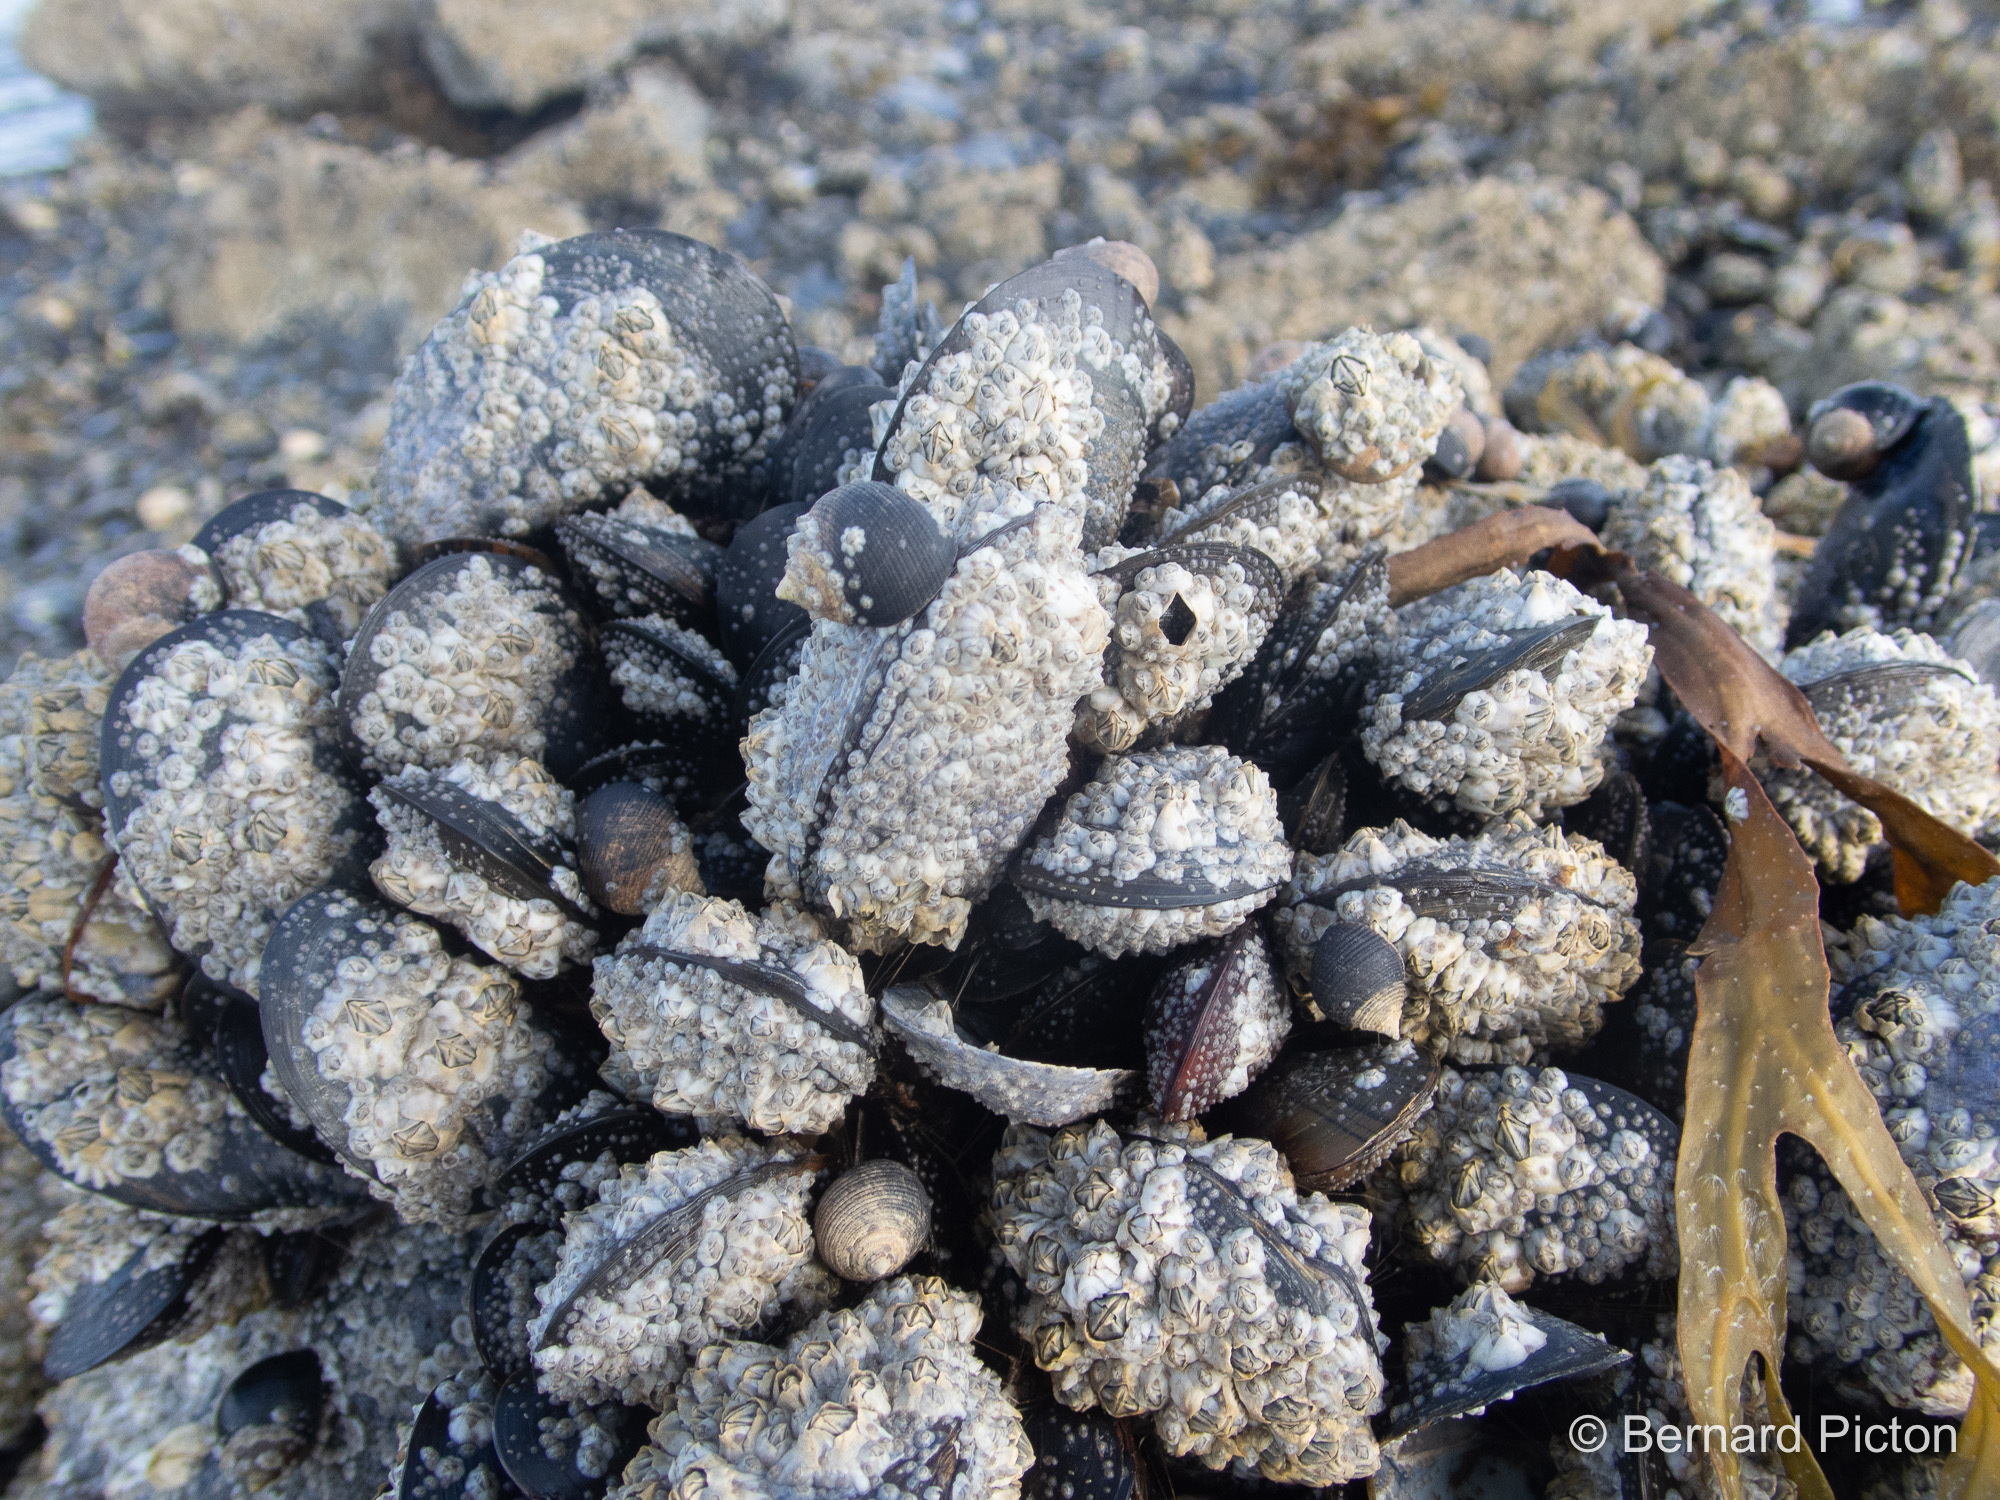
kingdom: Animalia
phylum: Mollusca
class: Bivalvia
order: Mytilida
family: Mytilidae
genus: Mytilus
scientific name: Mytilus edulis
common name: Blue mussel
